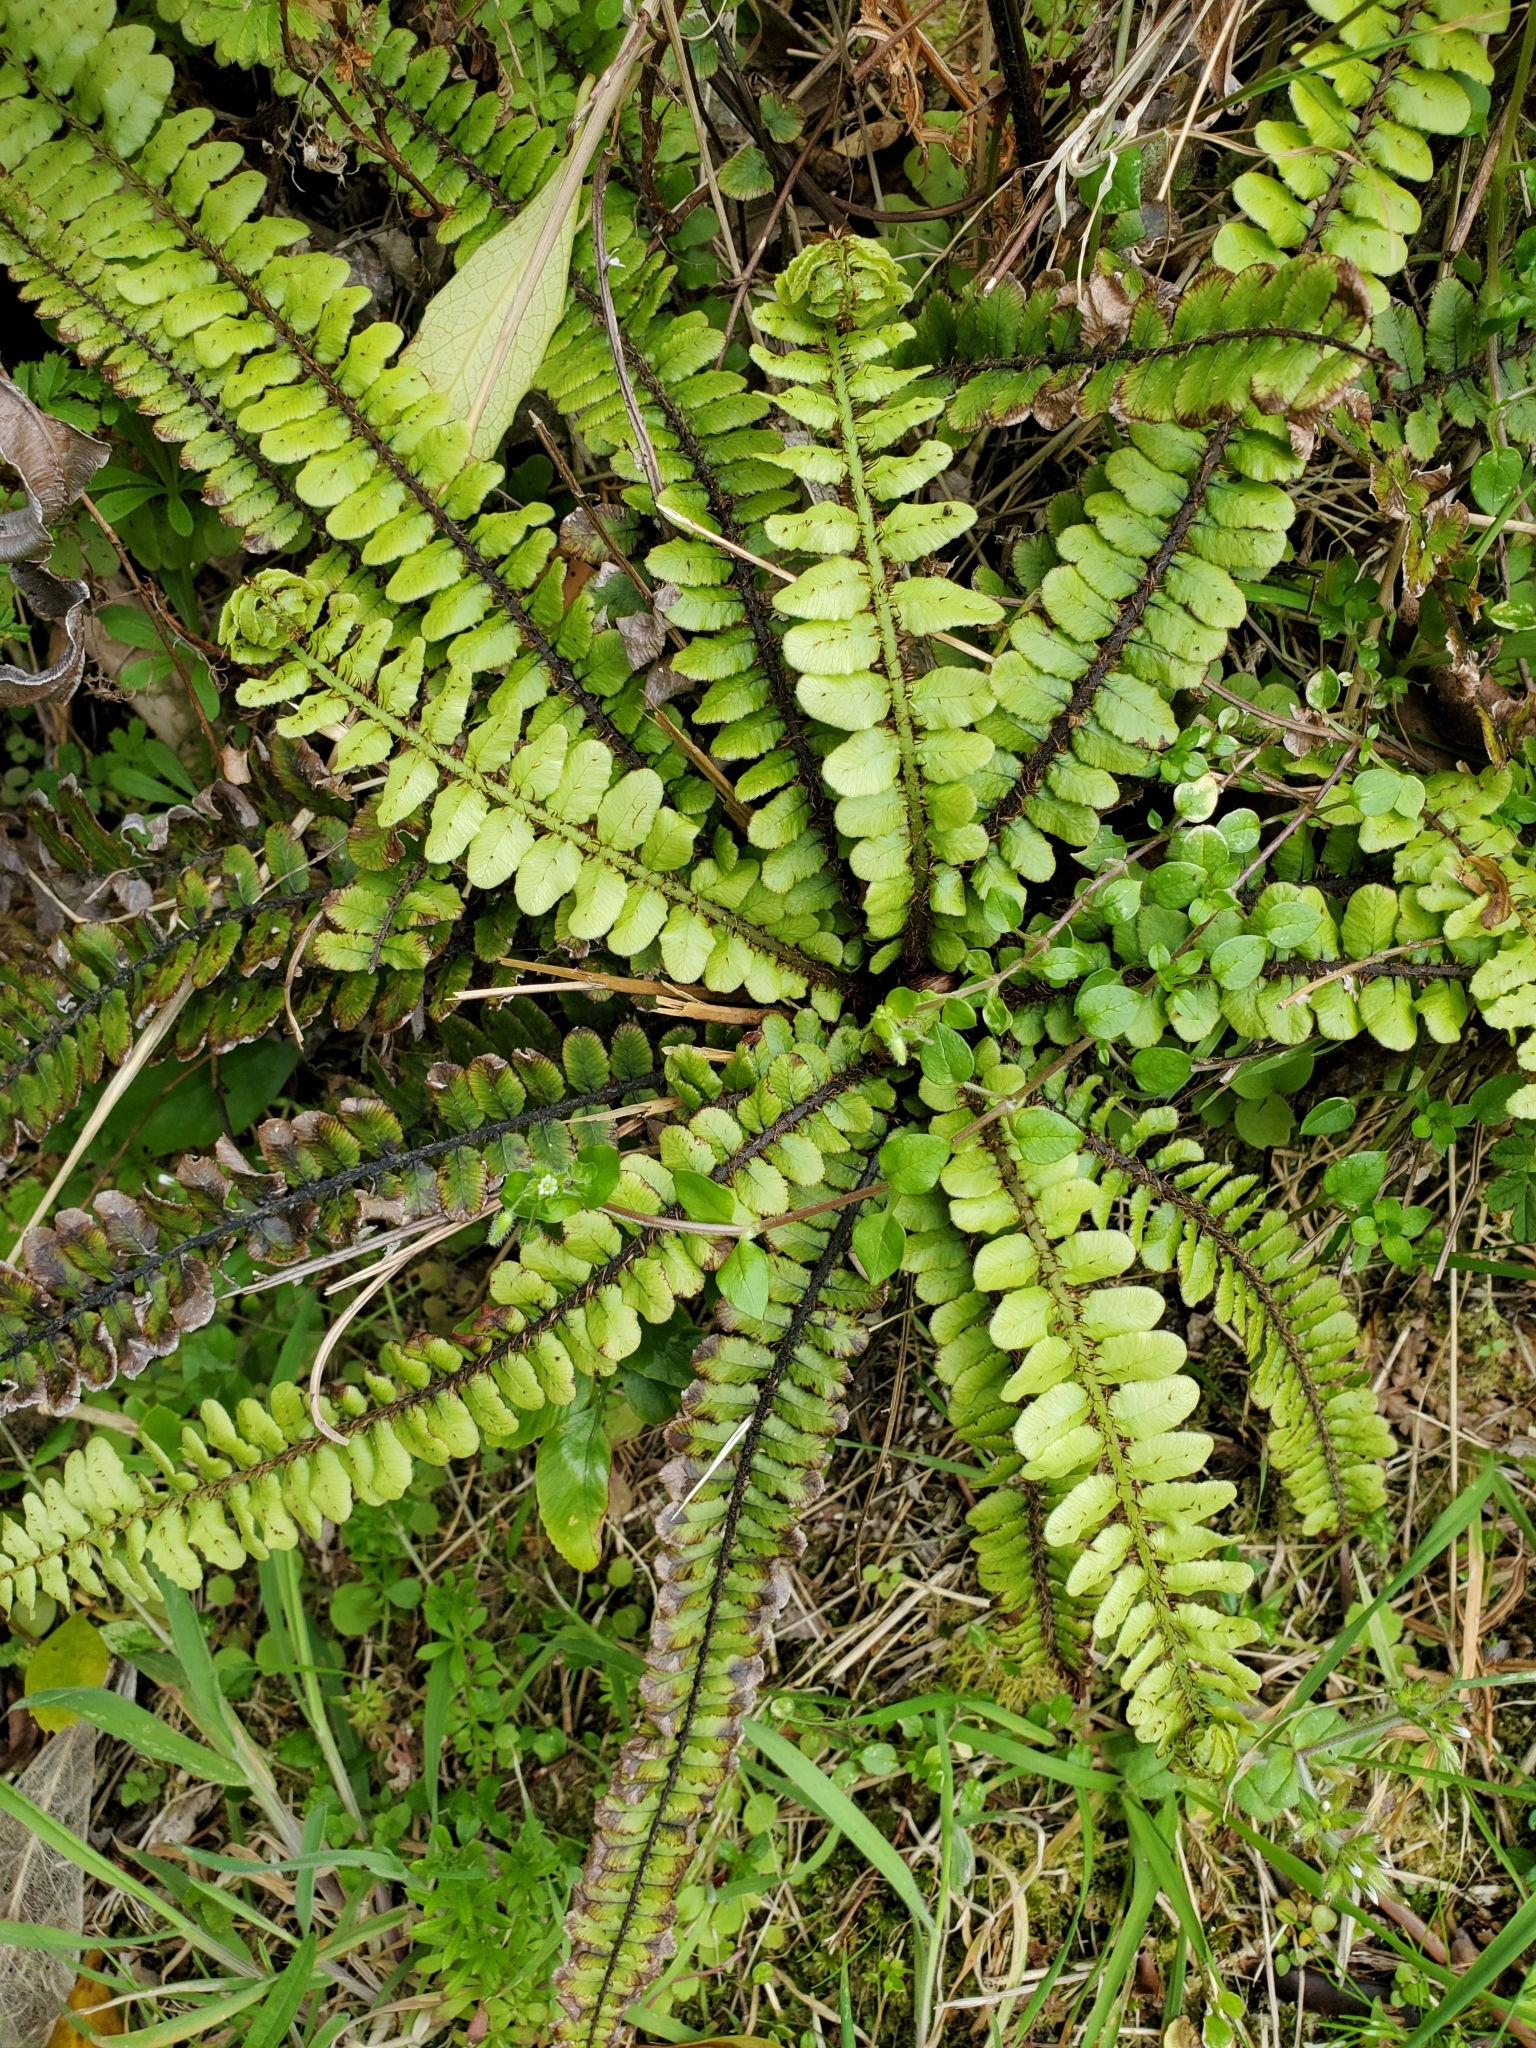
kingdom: Plantae
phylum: Tracheophyta
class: Polypodiopsida
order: Polypodiales
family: Blechnaceae
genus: Cranfillia
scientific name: Cranfillia fluviatilis
